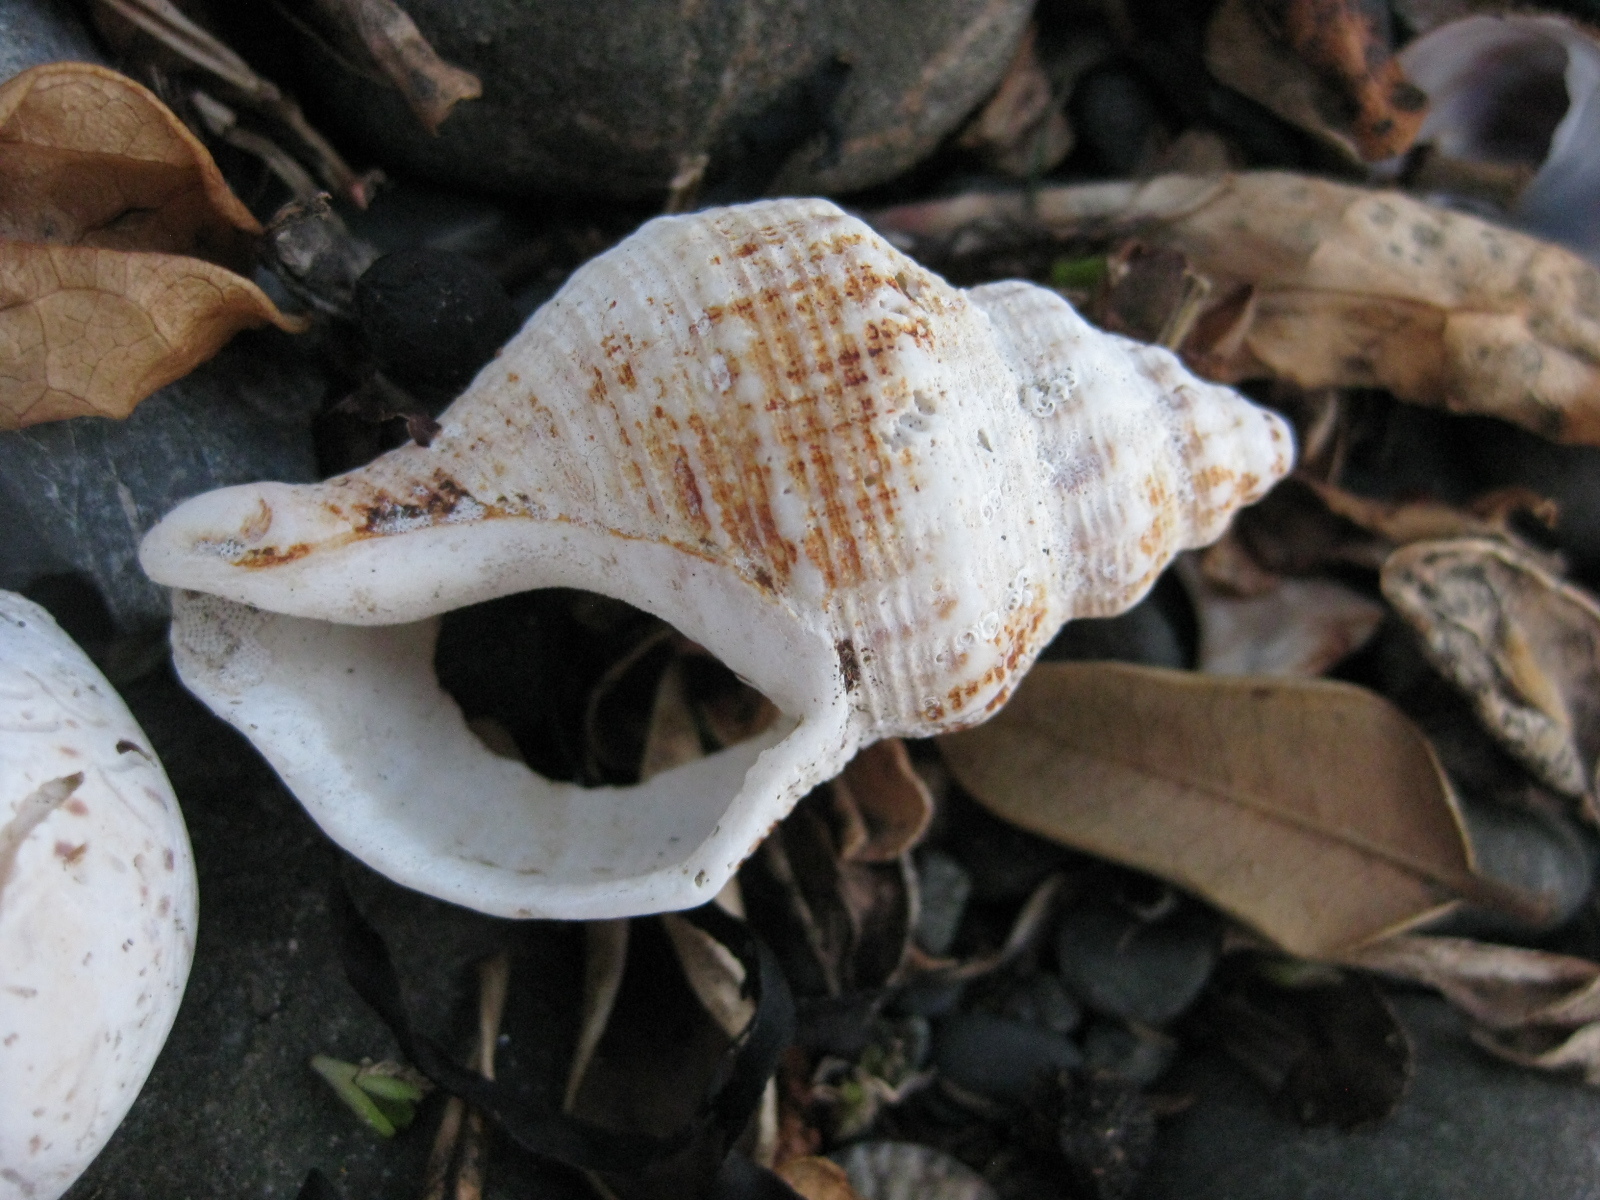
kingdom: Animalia
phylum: Mollusca
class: Gastropoda
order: Neogastropoda
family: Prosiphonidae
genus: Austrofusus
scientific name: Austrofusus glans
